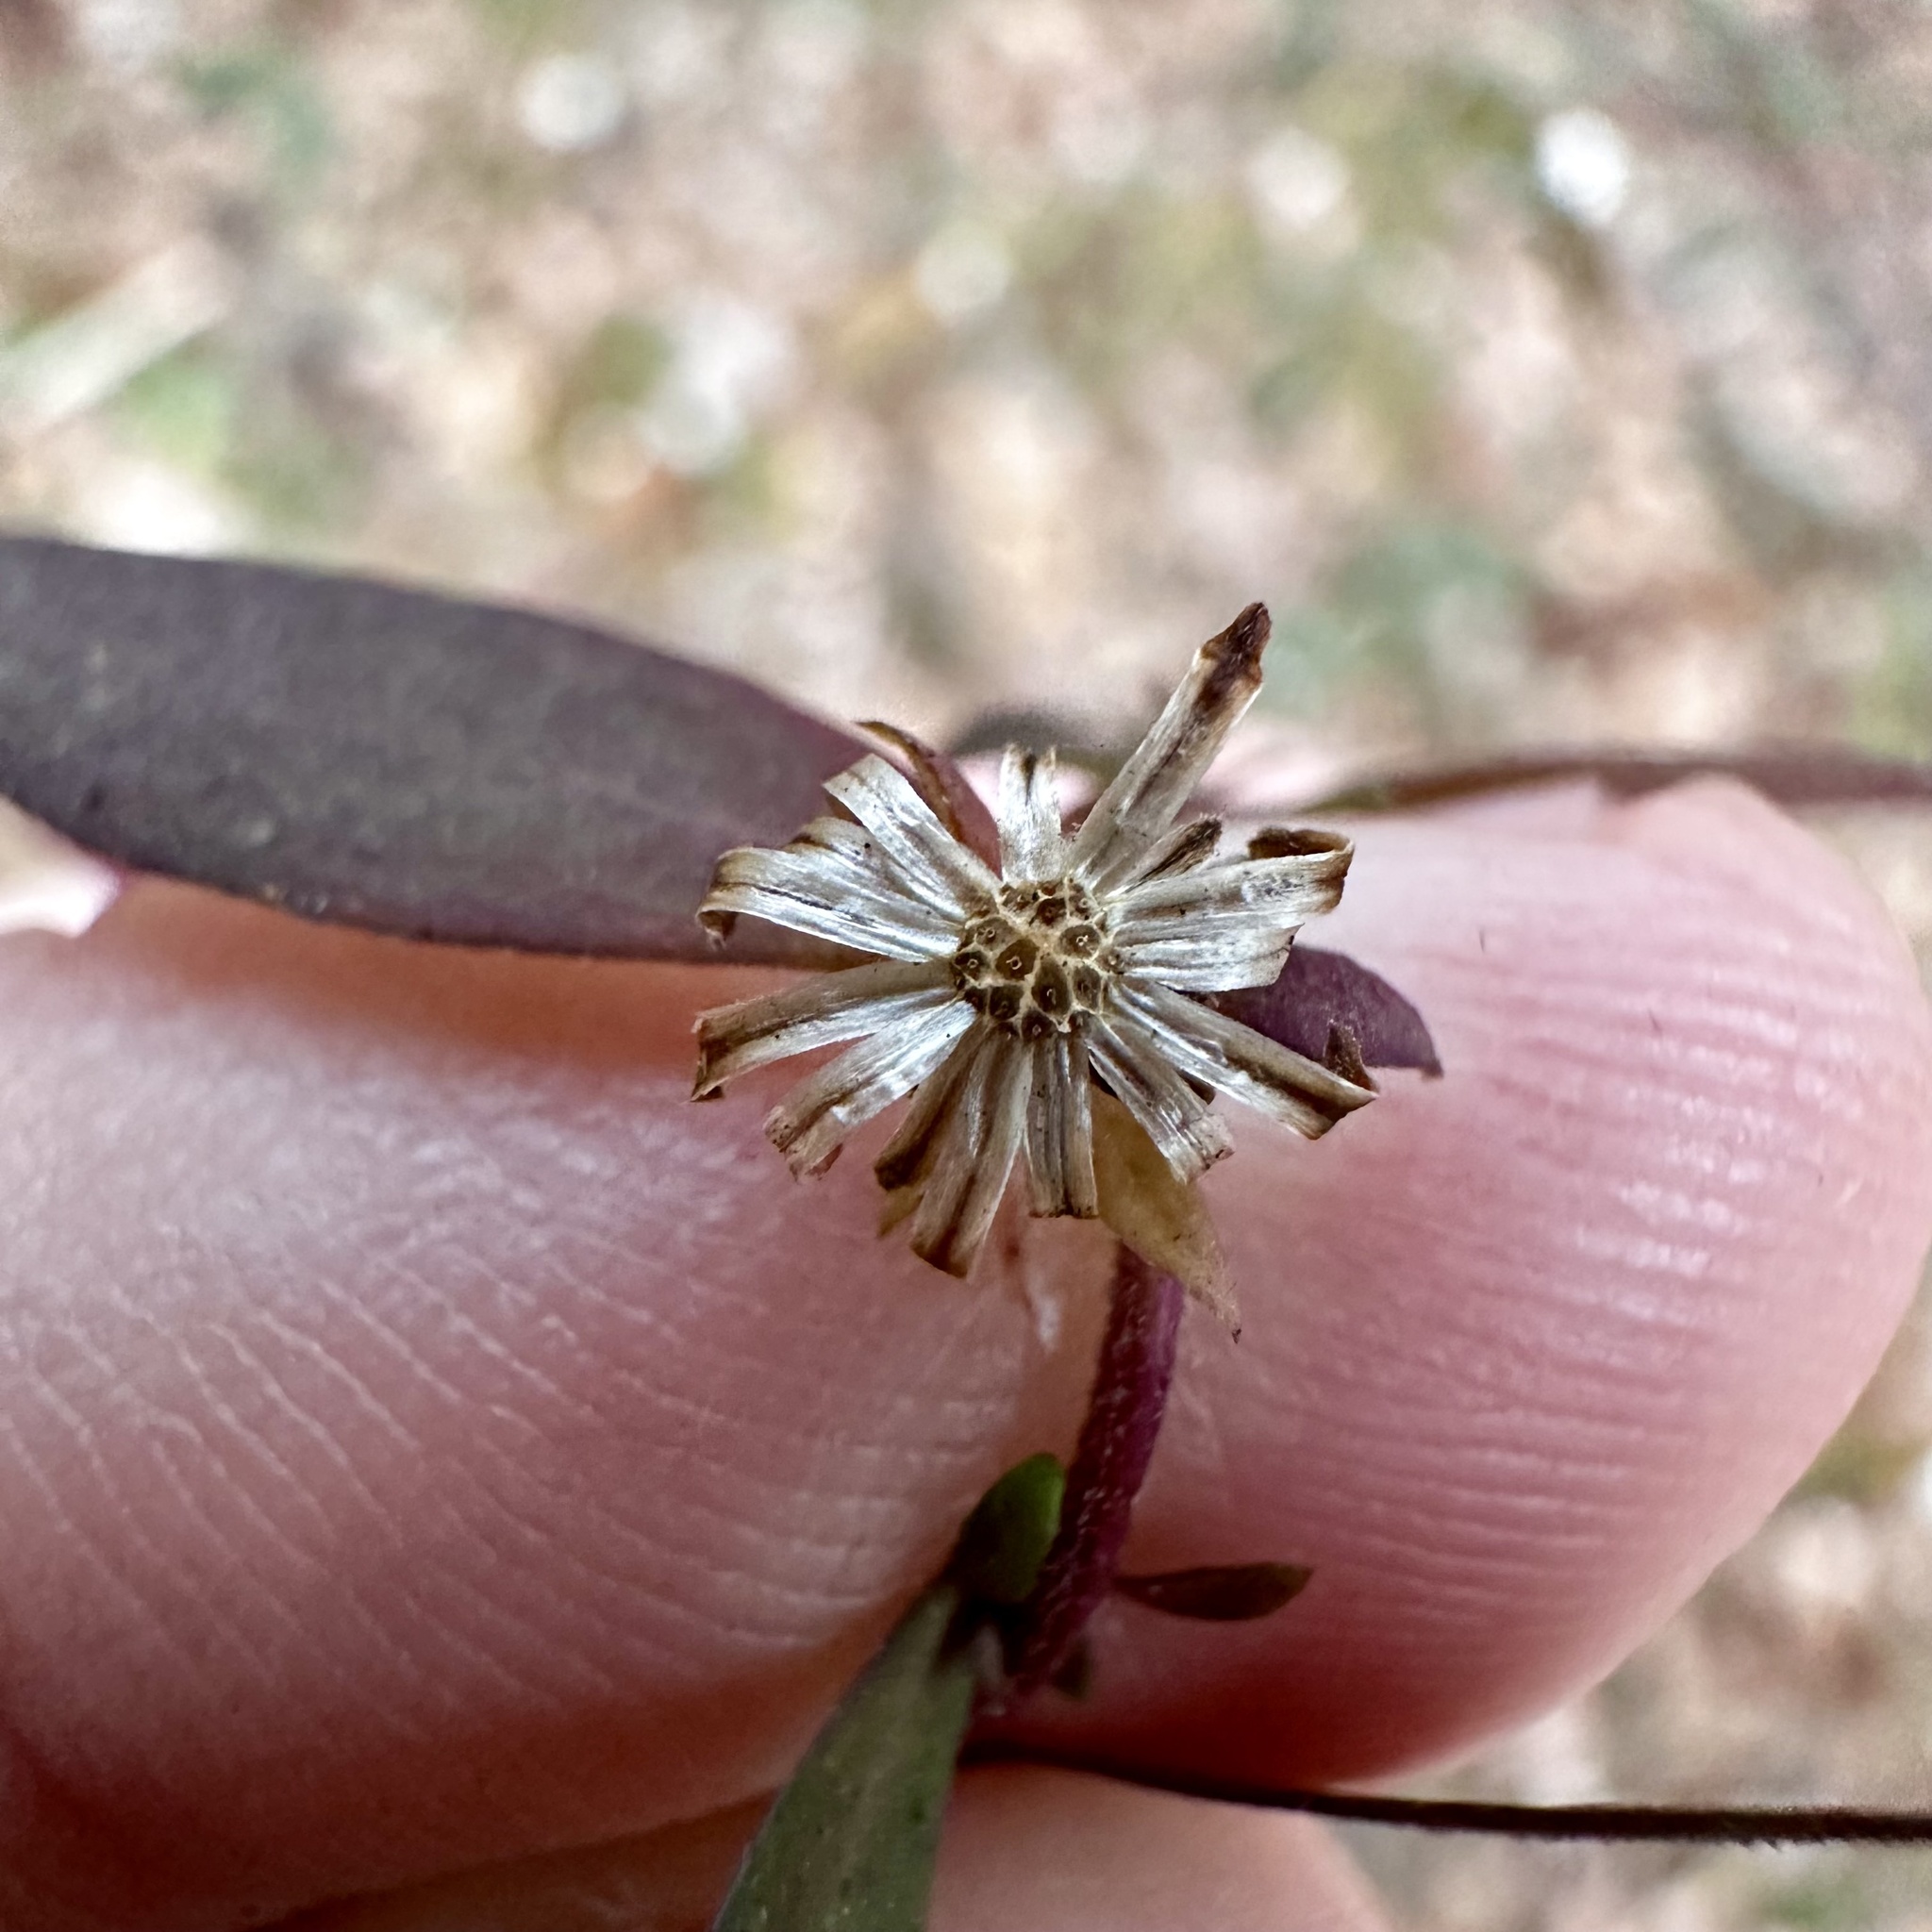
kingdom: Plantae
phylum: Tracheophyta
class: Magnoliopsida
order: Asterales
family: Asteraceae
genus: Symphyotrichum
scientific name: Symphyotrichum lateriflorum
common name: Calico aster
